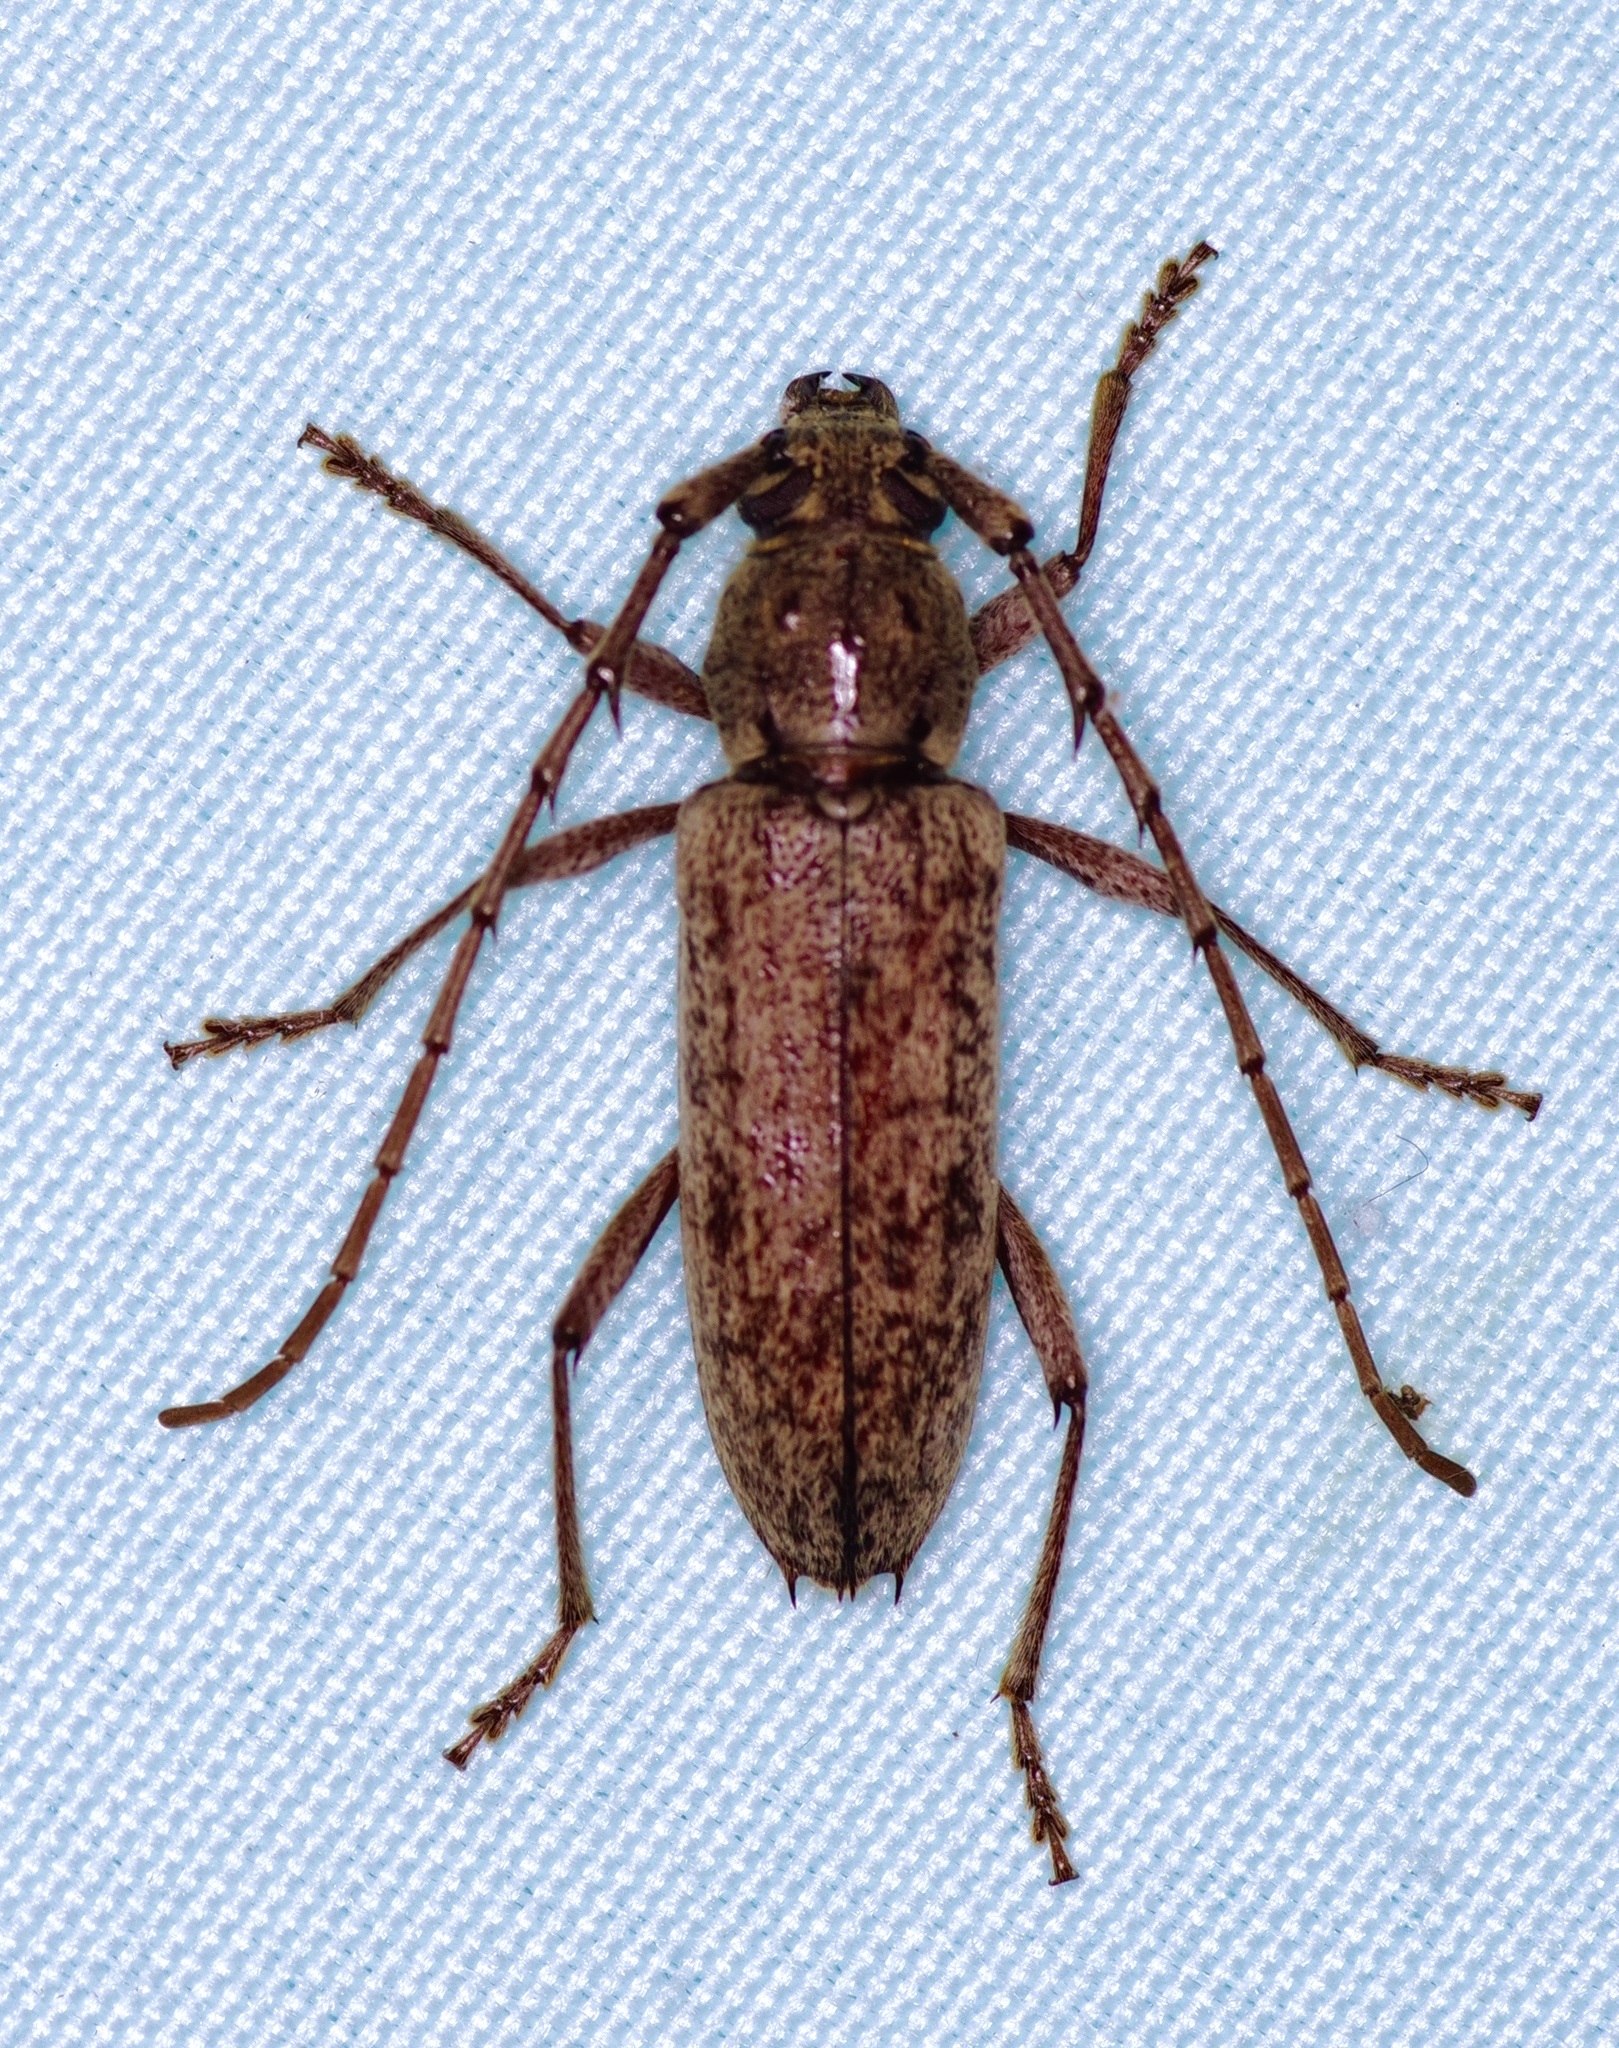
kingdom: Animalia
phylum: Arthropoda
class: Insecta
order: Coleoptera
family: Cerambycidae
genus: Elaphidion
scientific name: Elaphidion mucronatum
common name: Spined oak borer
